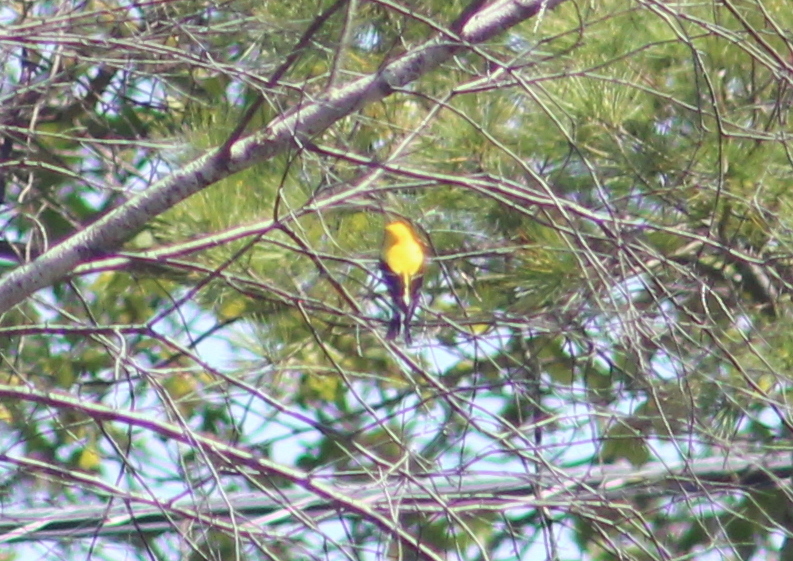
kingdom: Animalia
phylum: Chordata
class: Aves
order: Passeriformes
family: Fringillidae
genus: Spinus
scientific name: Spinus tristis
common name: American goldfinch
